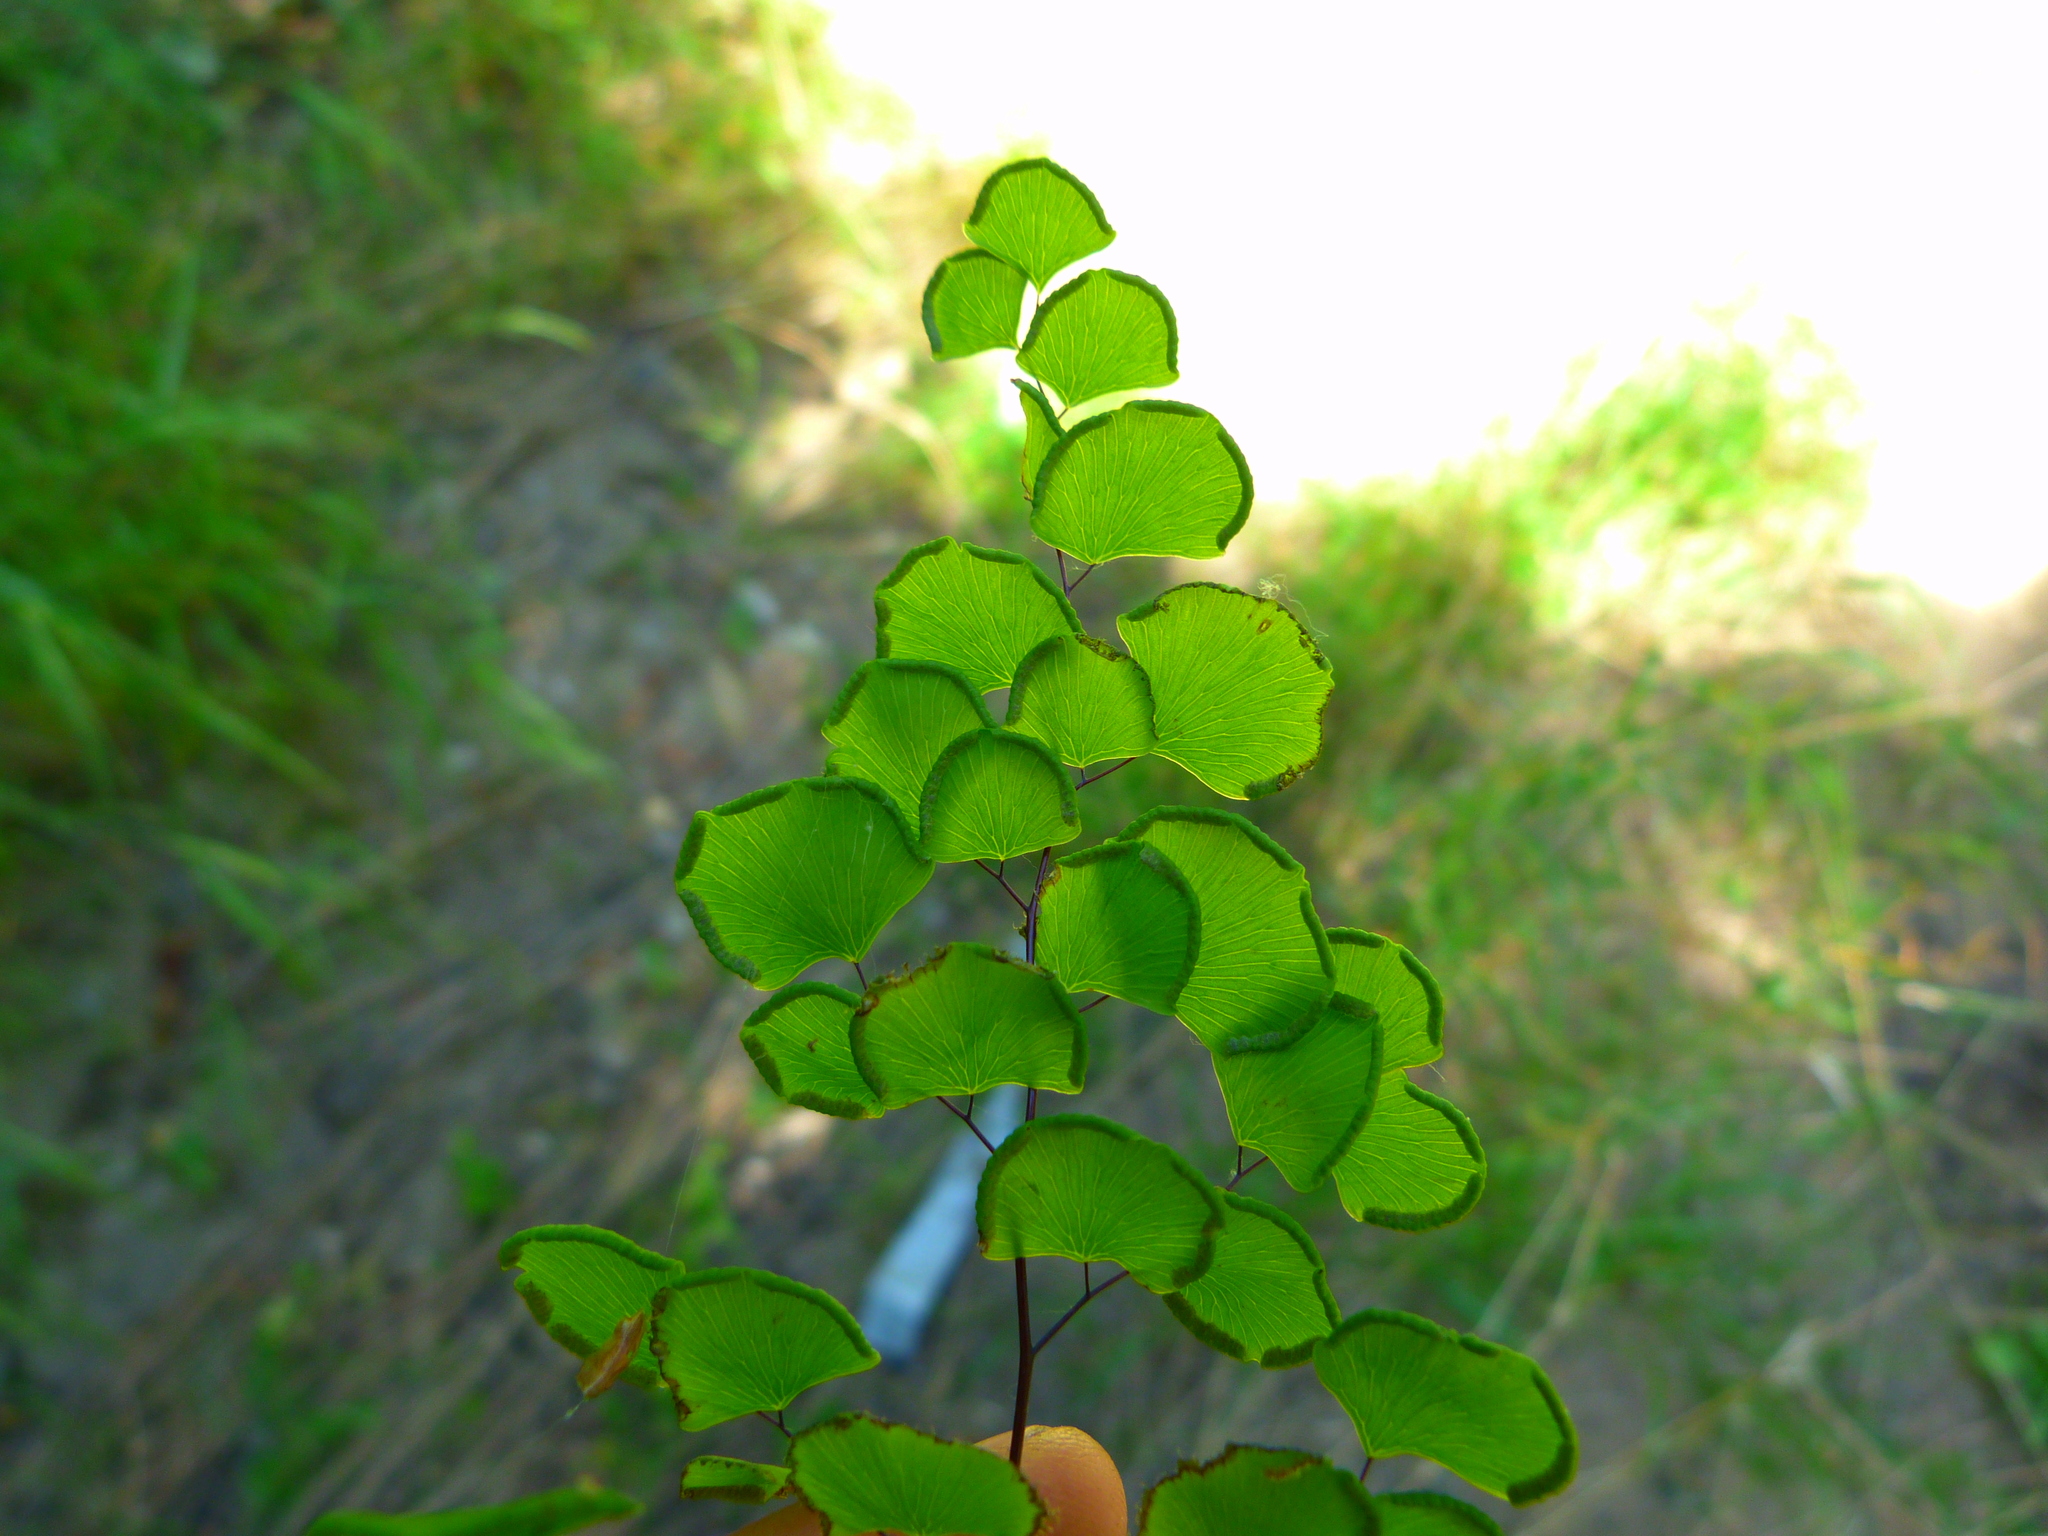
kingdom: Plantae
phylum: Tracheophyta
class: Polypodiopsida
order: Polypodiales
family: Pteridaceae
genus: Adiantum
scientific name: Adiantum jordanii
